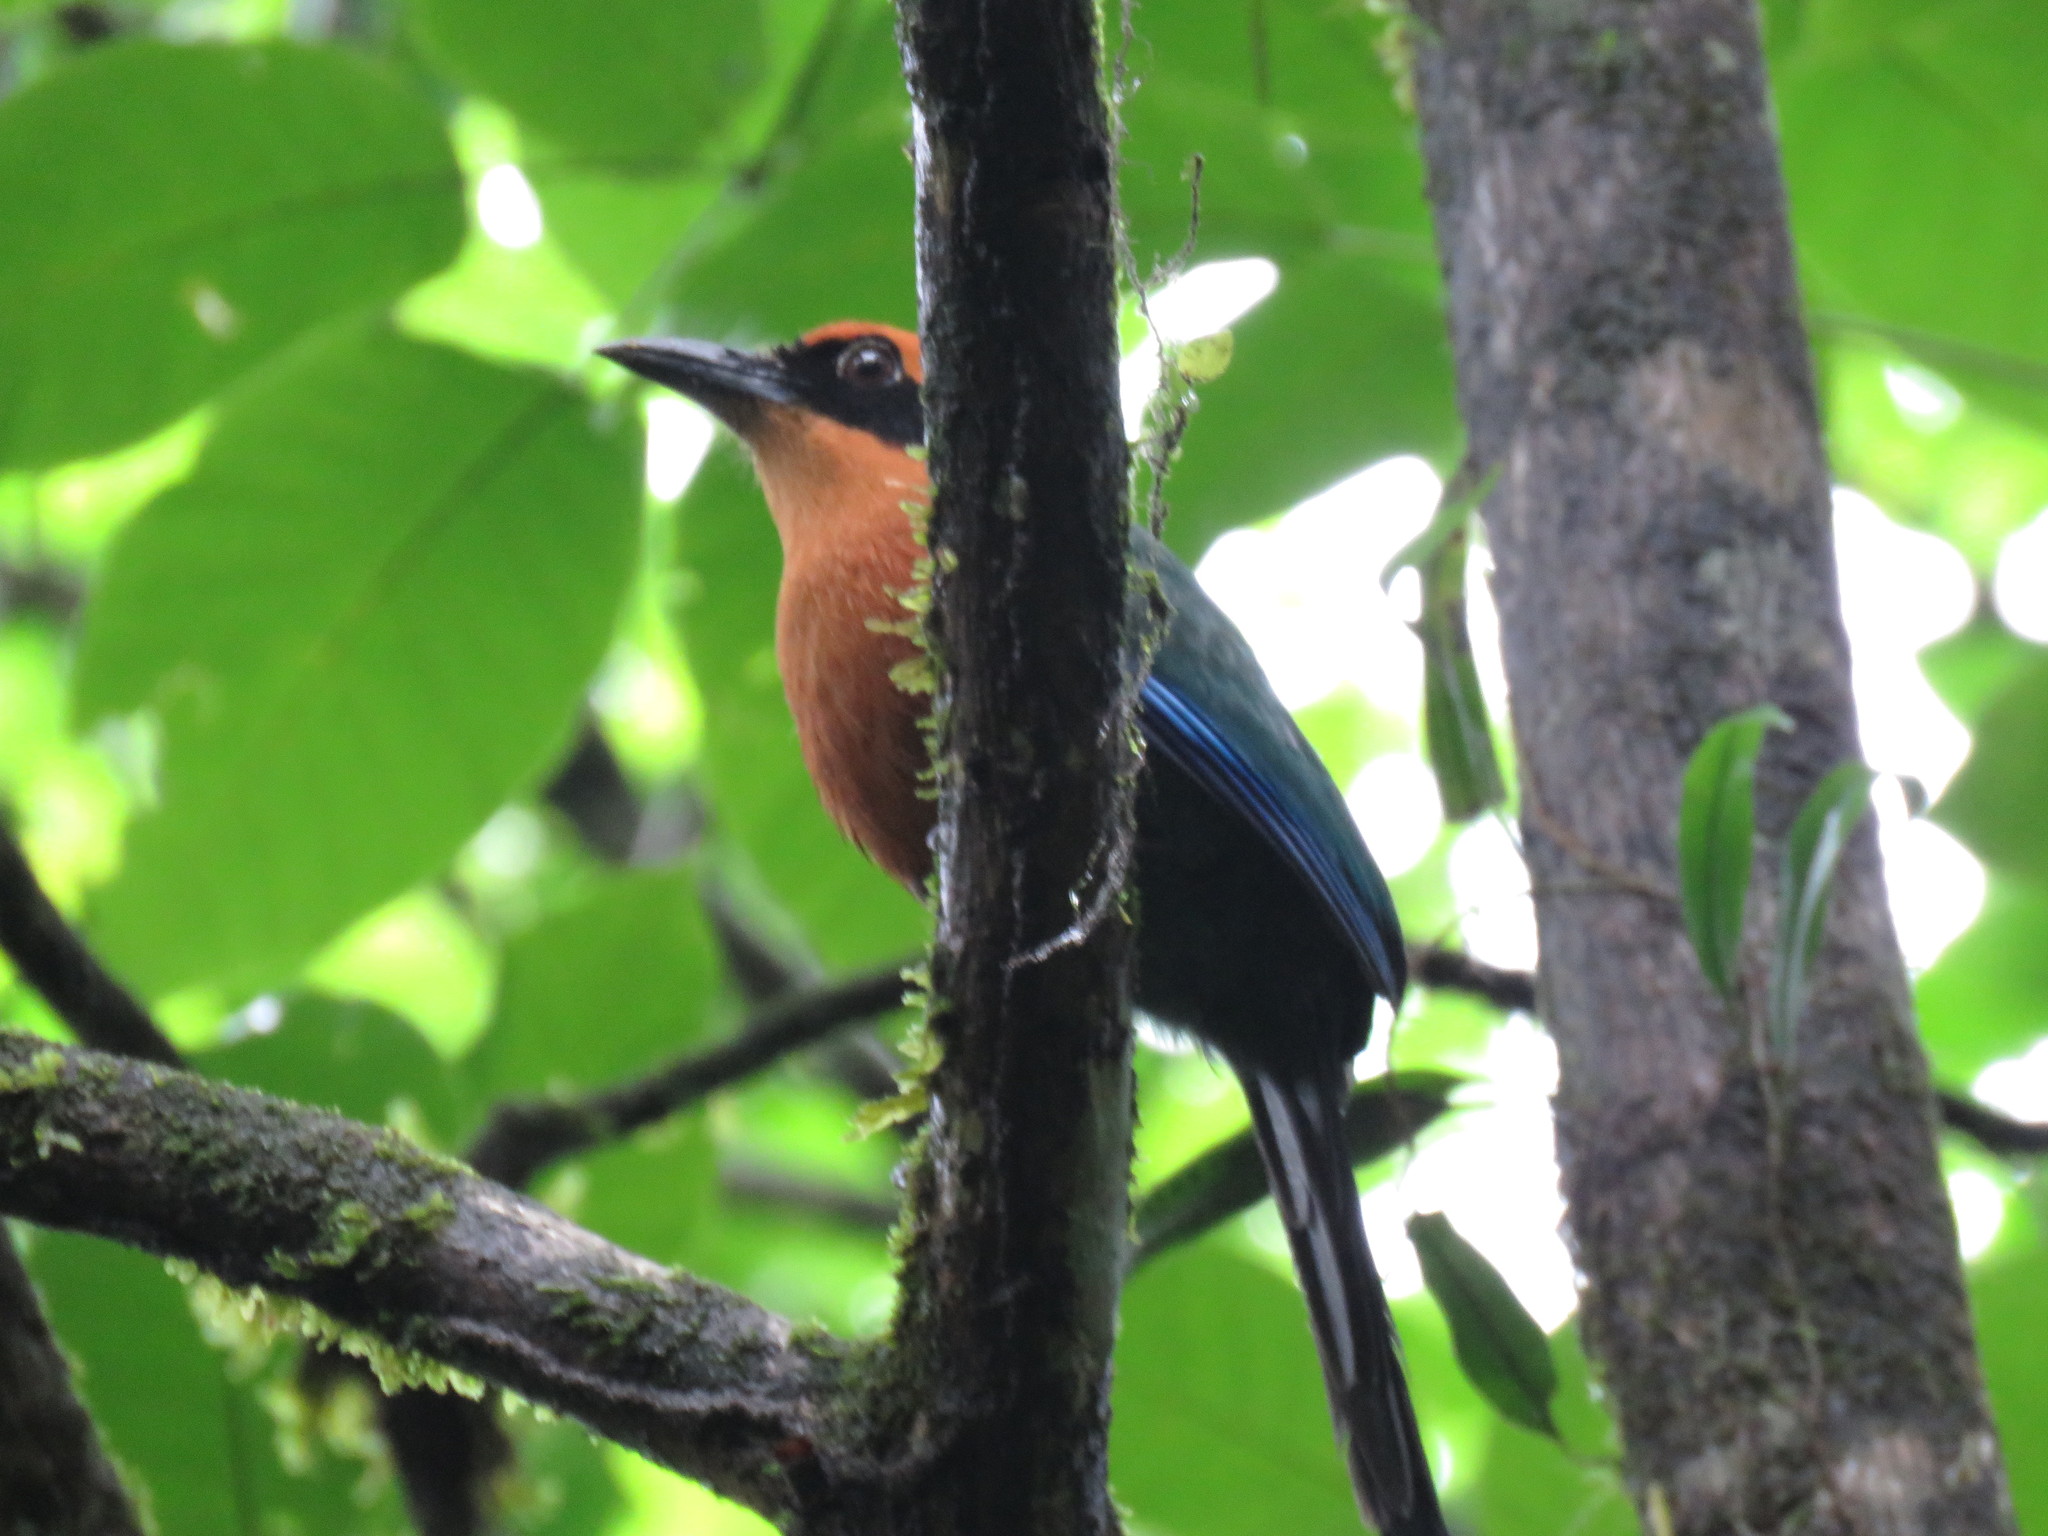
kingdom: Animalia
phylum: Chordata
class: Aves
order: Coraciiformes
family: Momotidae
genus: Baryphthengus
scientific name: Baryphthengus martii
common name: Rufous motmot
